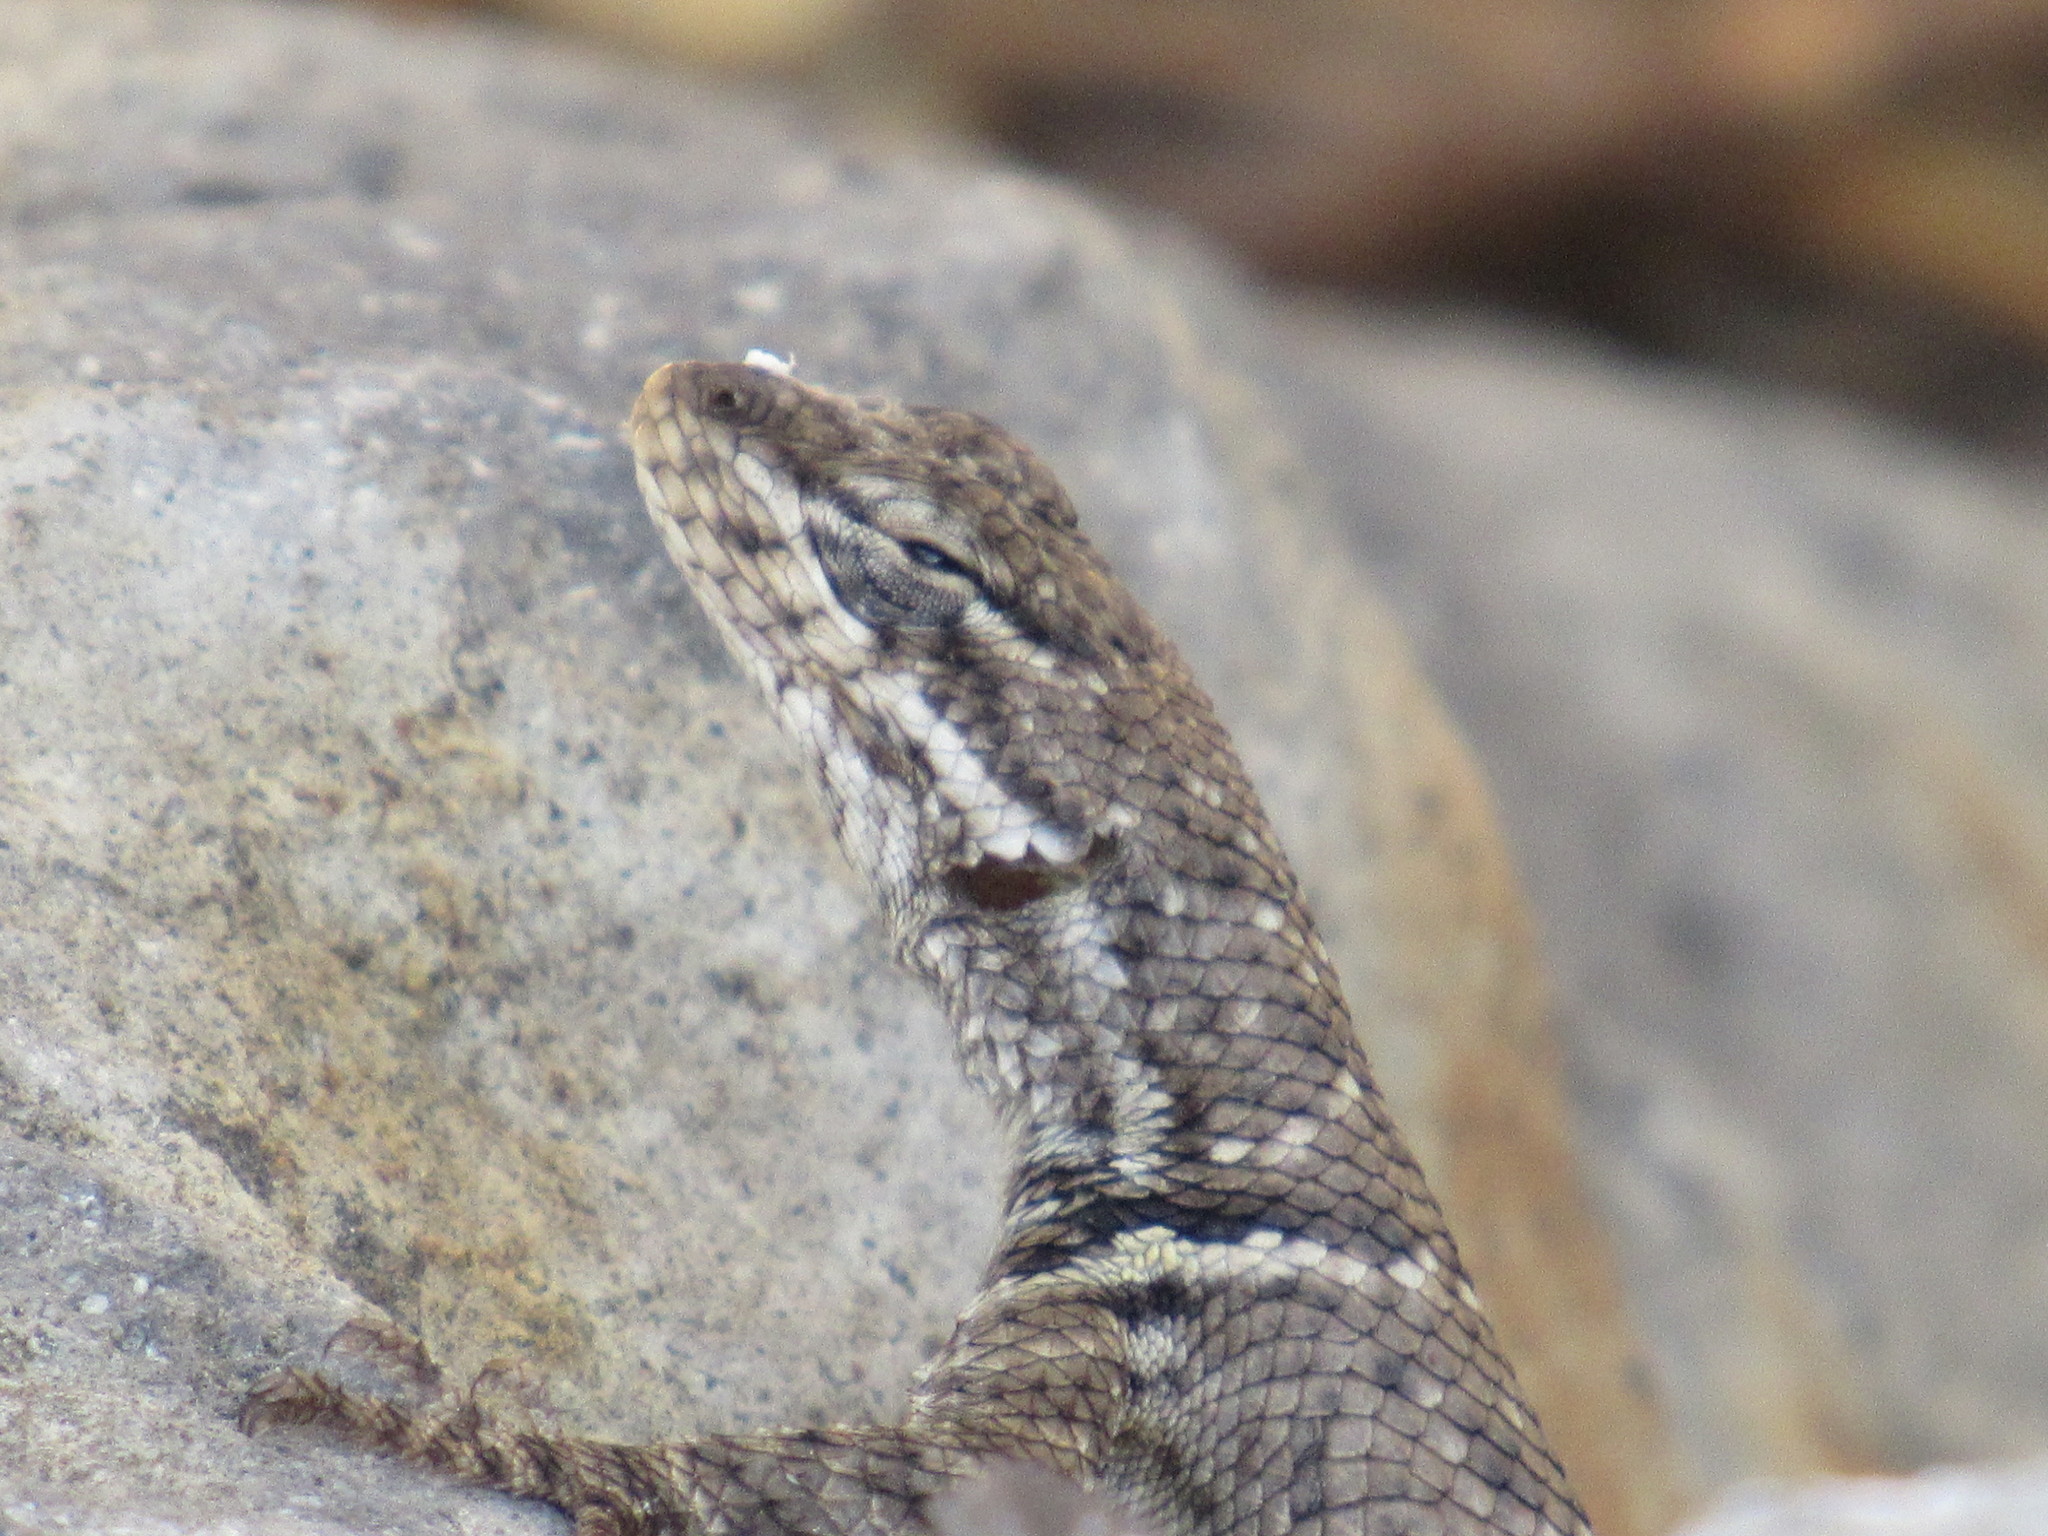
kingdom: Animalia
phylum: Chordata
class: Squamata
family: Phrynosomatidae
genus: Sceloporus
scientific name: Sceloporus dugesii
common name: Duges' spiny lizard
